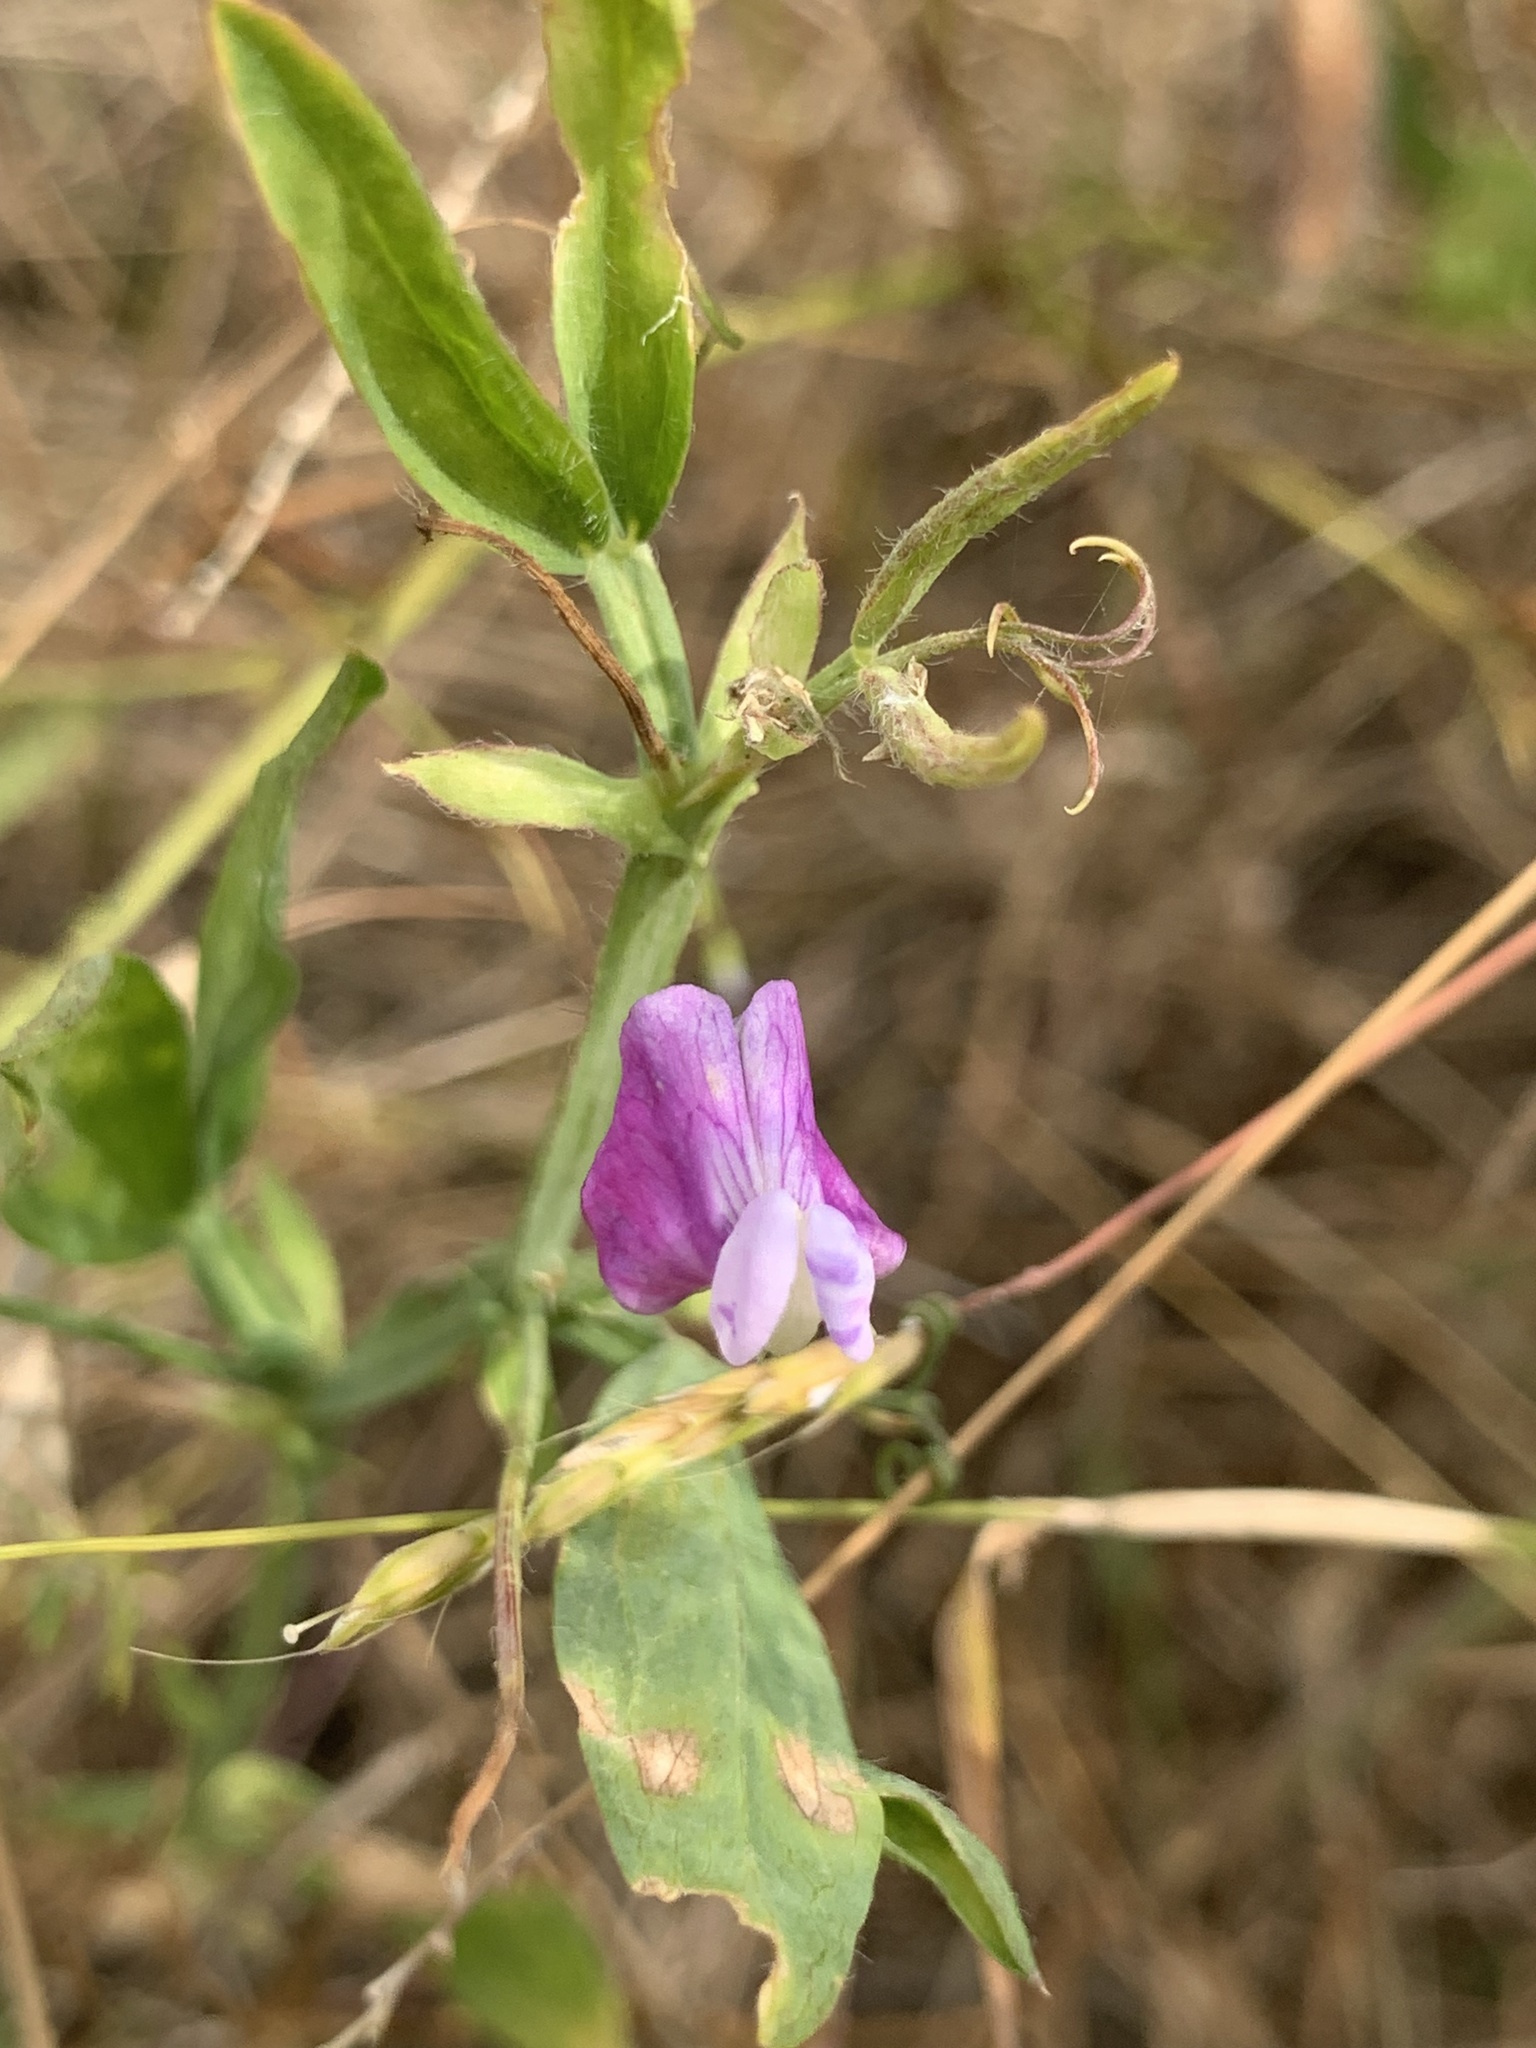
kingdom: Plantae
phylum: Tracheophyta
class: Magnoliopsida
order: Fabales
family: Fabaceae
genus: Lathyrus
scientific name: Lathyrus hirsutus
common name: Hairy vetchling
